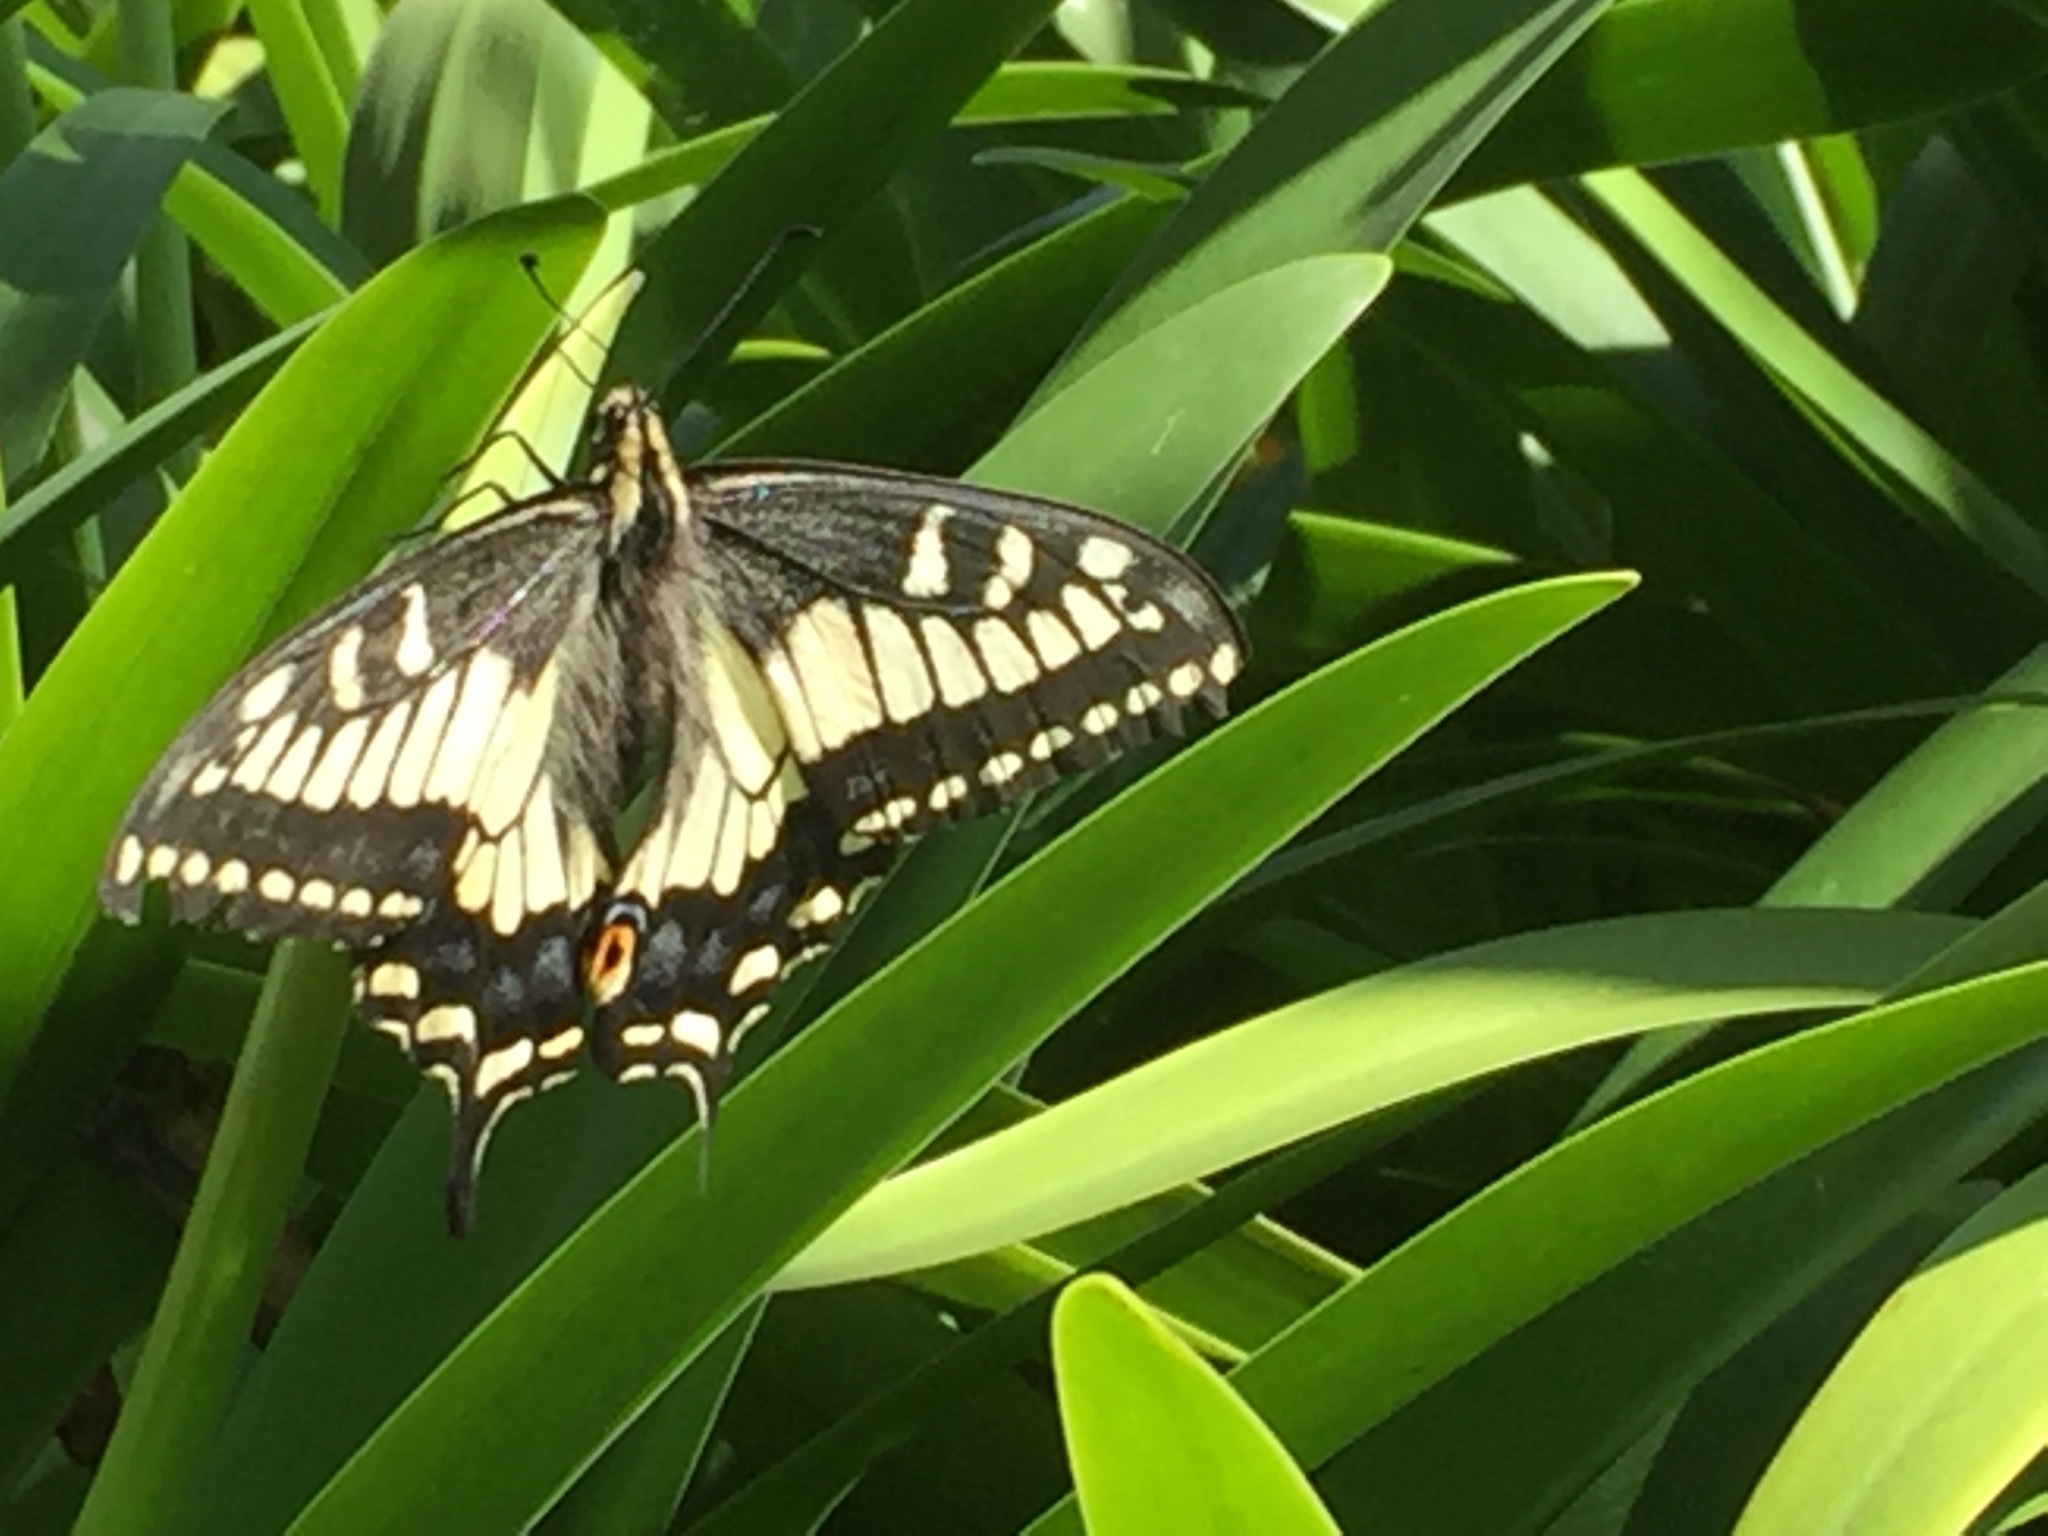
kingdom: Animalia
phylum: Arthropoda
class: Insecta
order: Lepidoptera
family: Papilionidae
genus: Papilio
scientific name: Papilio zelicaon
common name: Anise swallowtail
